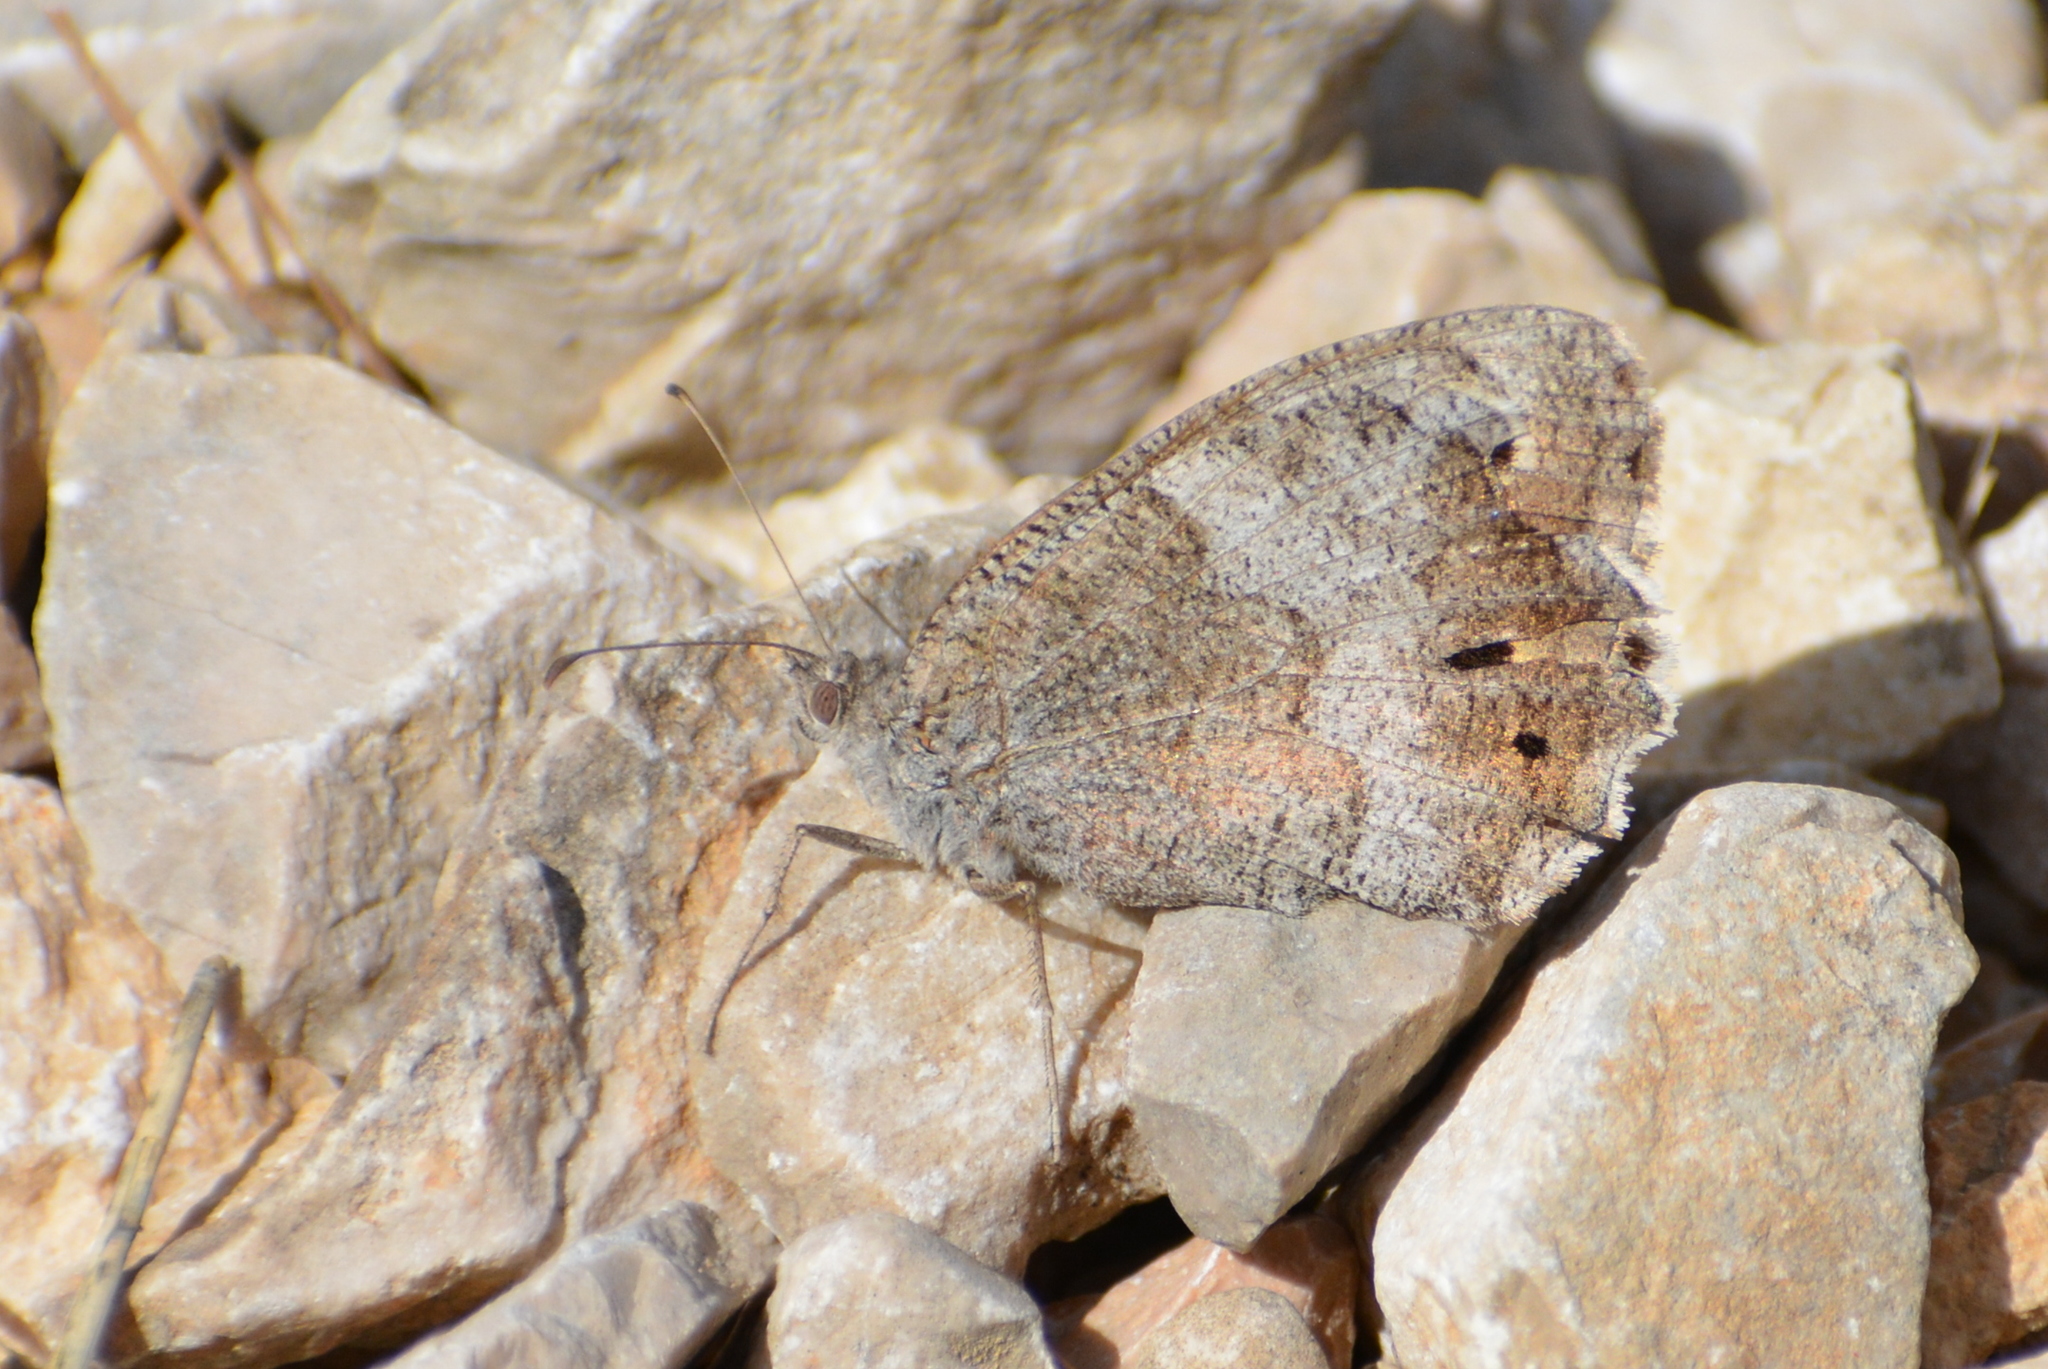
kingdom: Animalia
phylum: Arthropoda
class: Insecta
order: Lepidoptera
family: Nymphalidae
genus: Hipparchia
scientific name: Hipparchia statilinus
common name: Tree grayling
